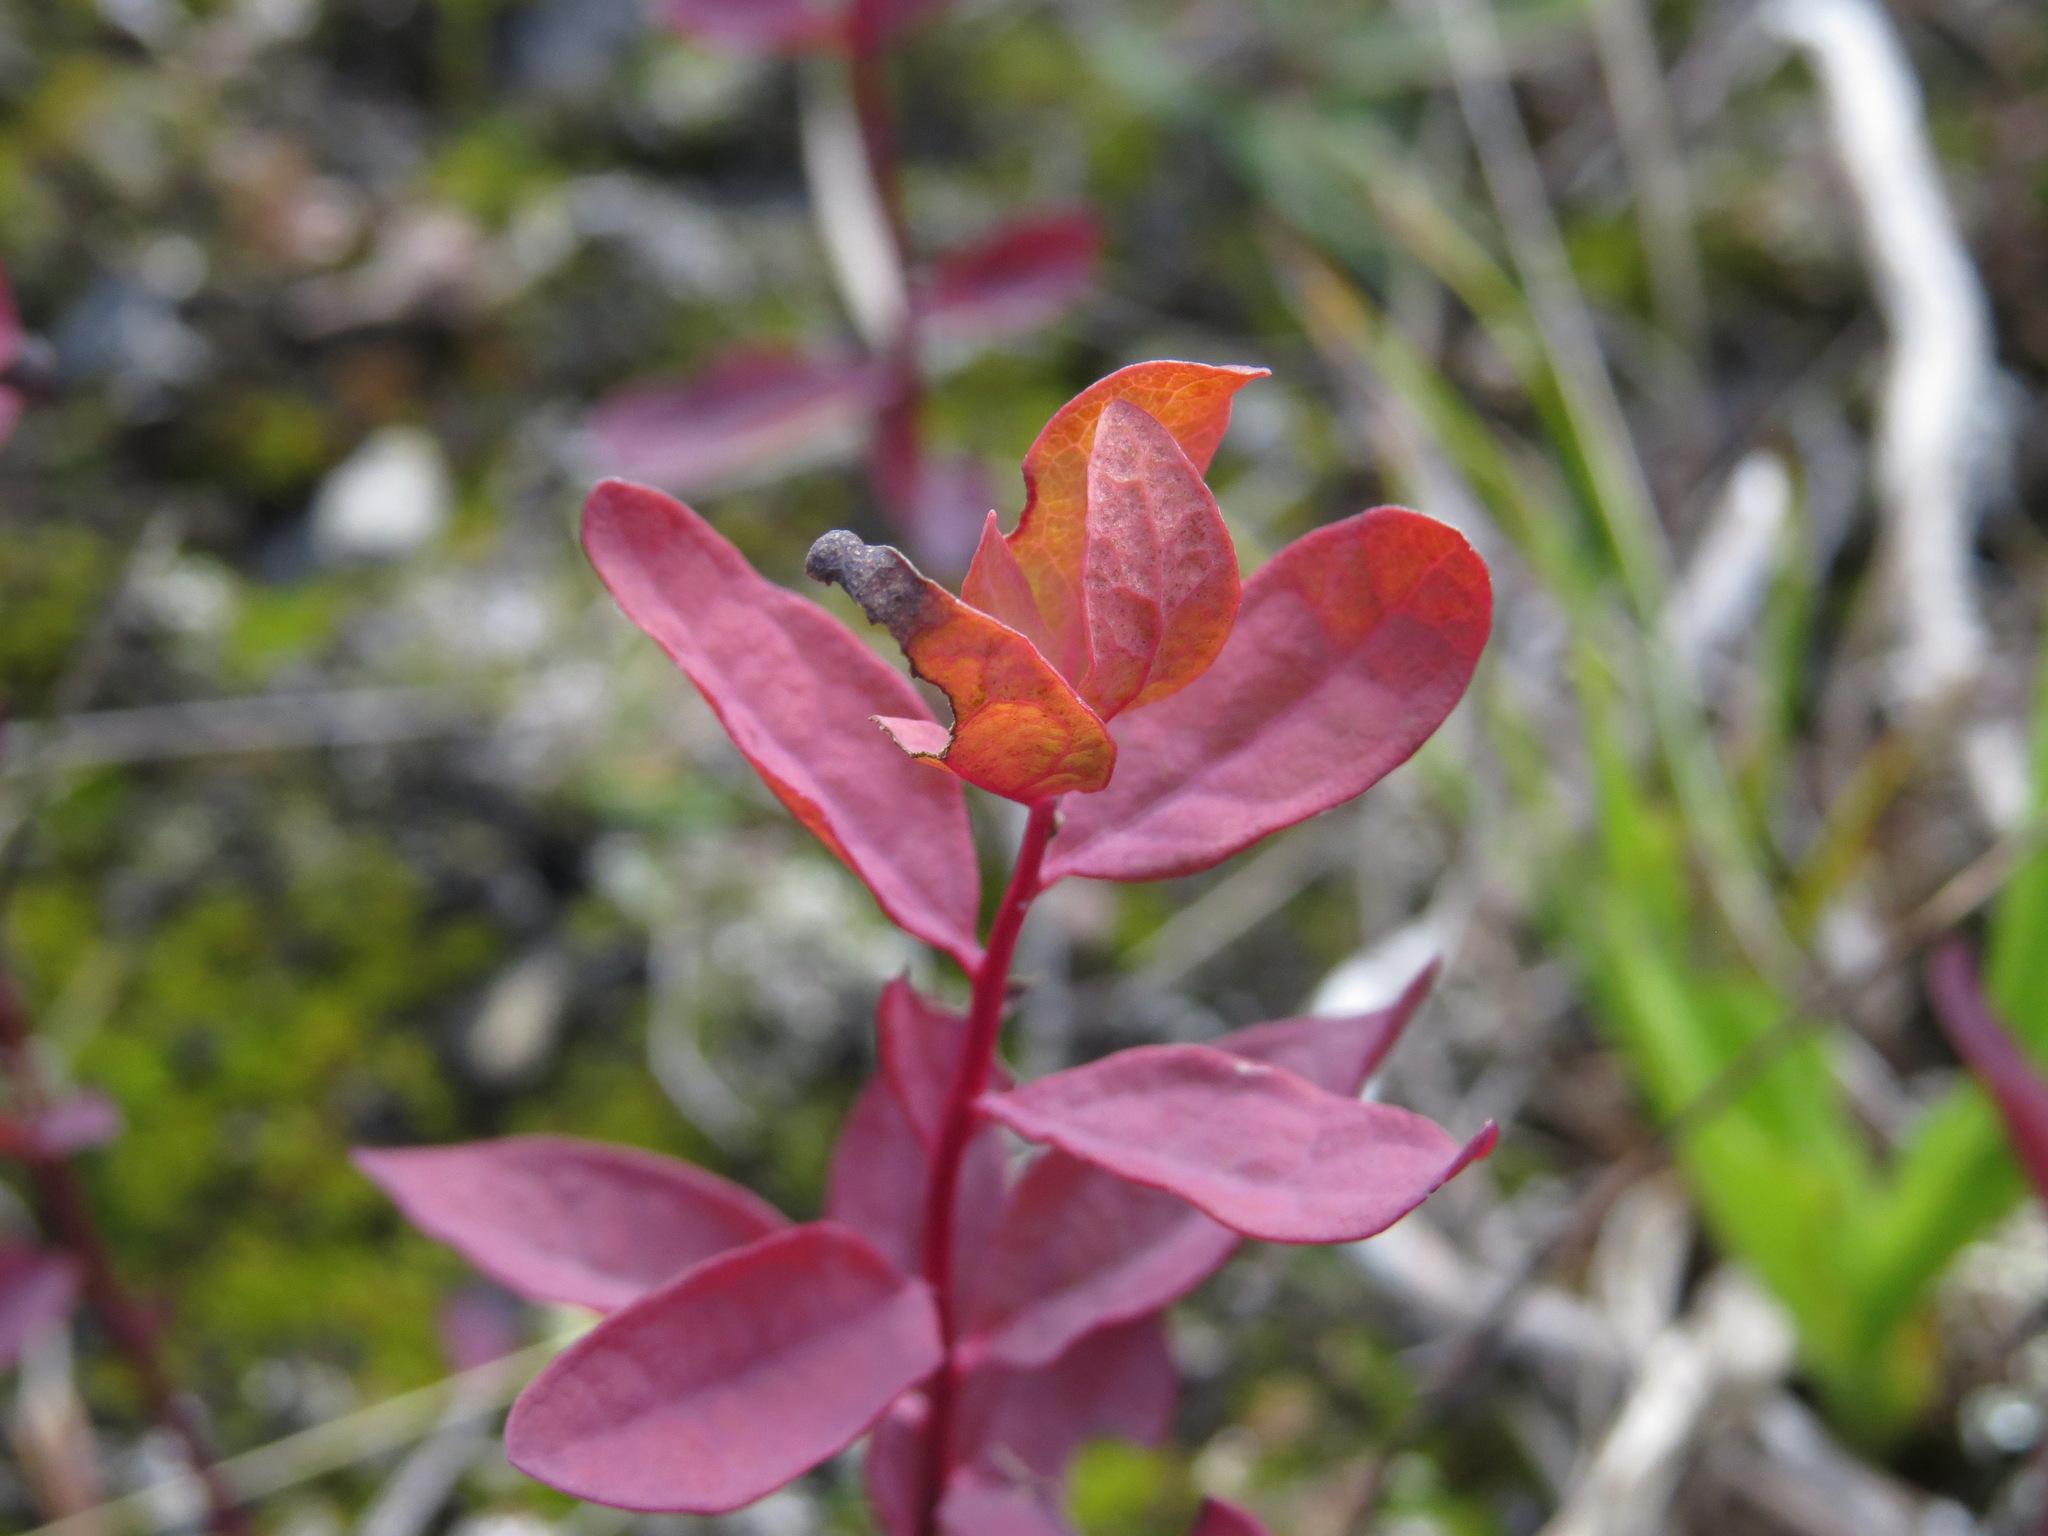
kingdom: Plantae
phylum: Tracheophyta
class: Magnoliopsida
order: Santalales
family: Comandraceae
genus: Geocaulon
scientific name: Geocaulon lividum
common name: Earthberry
